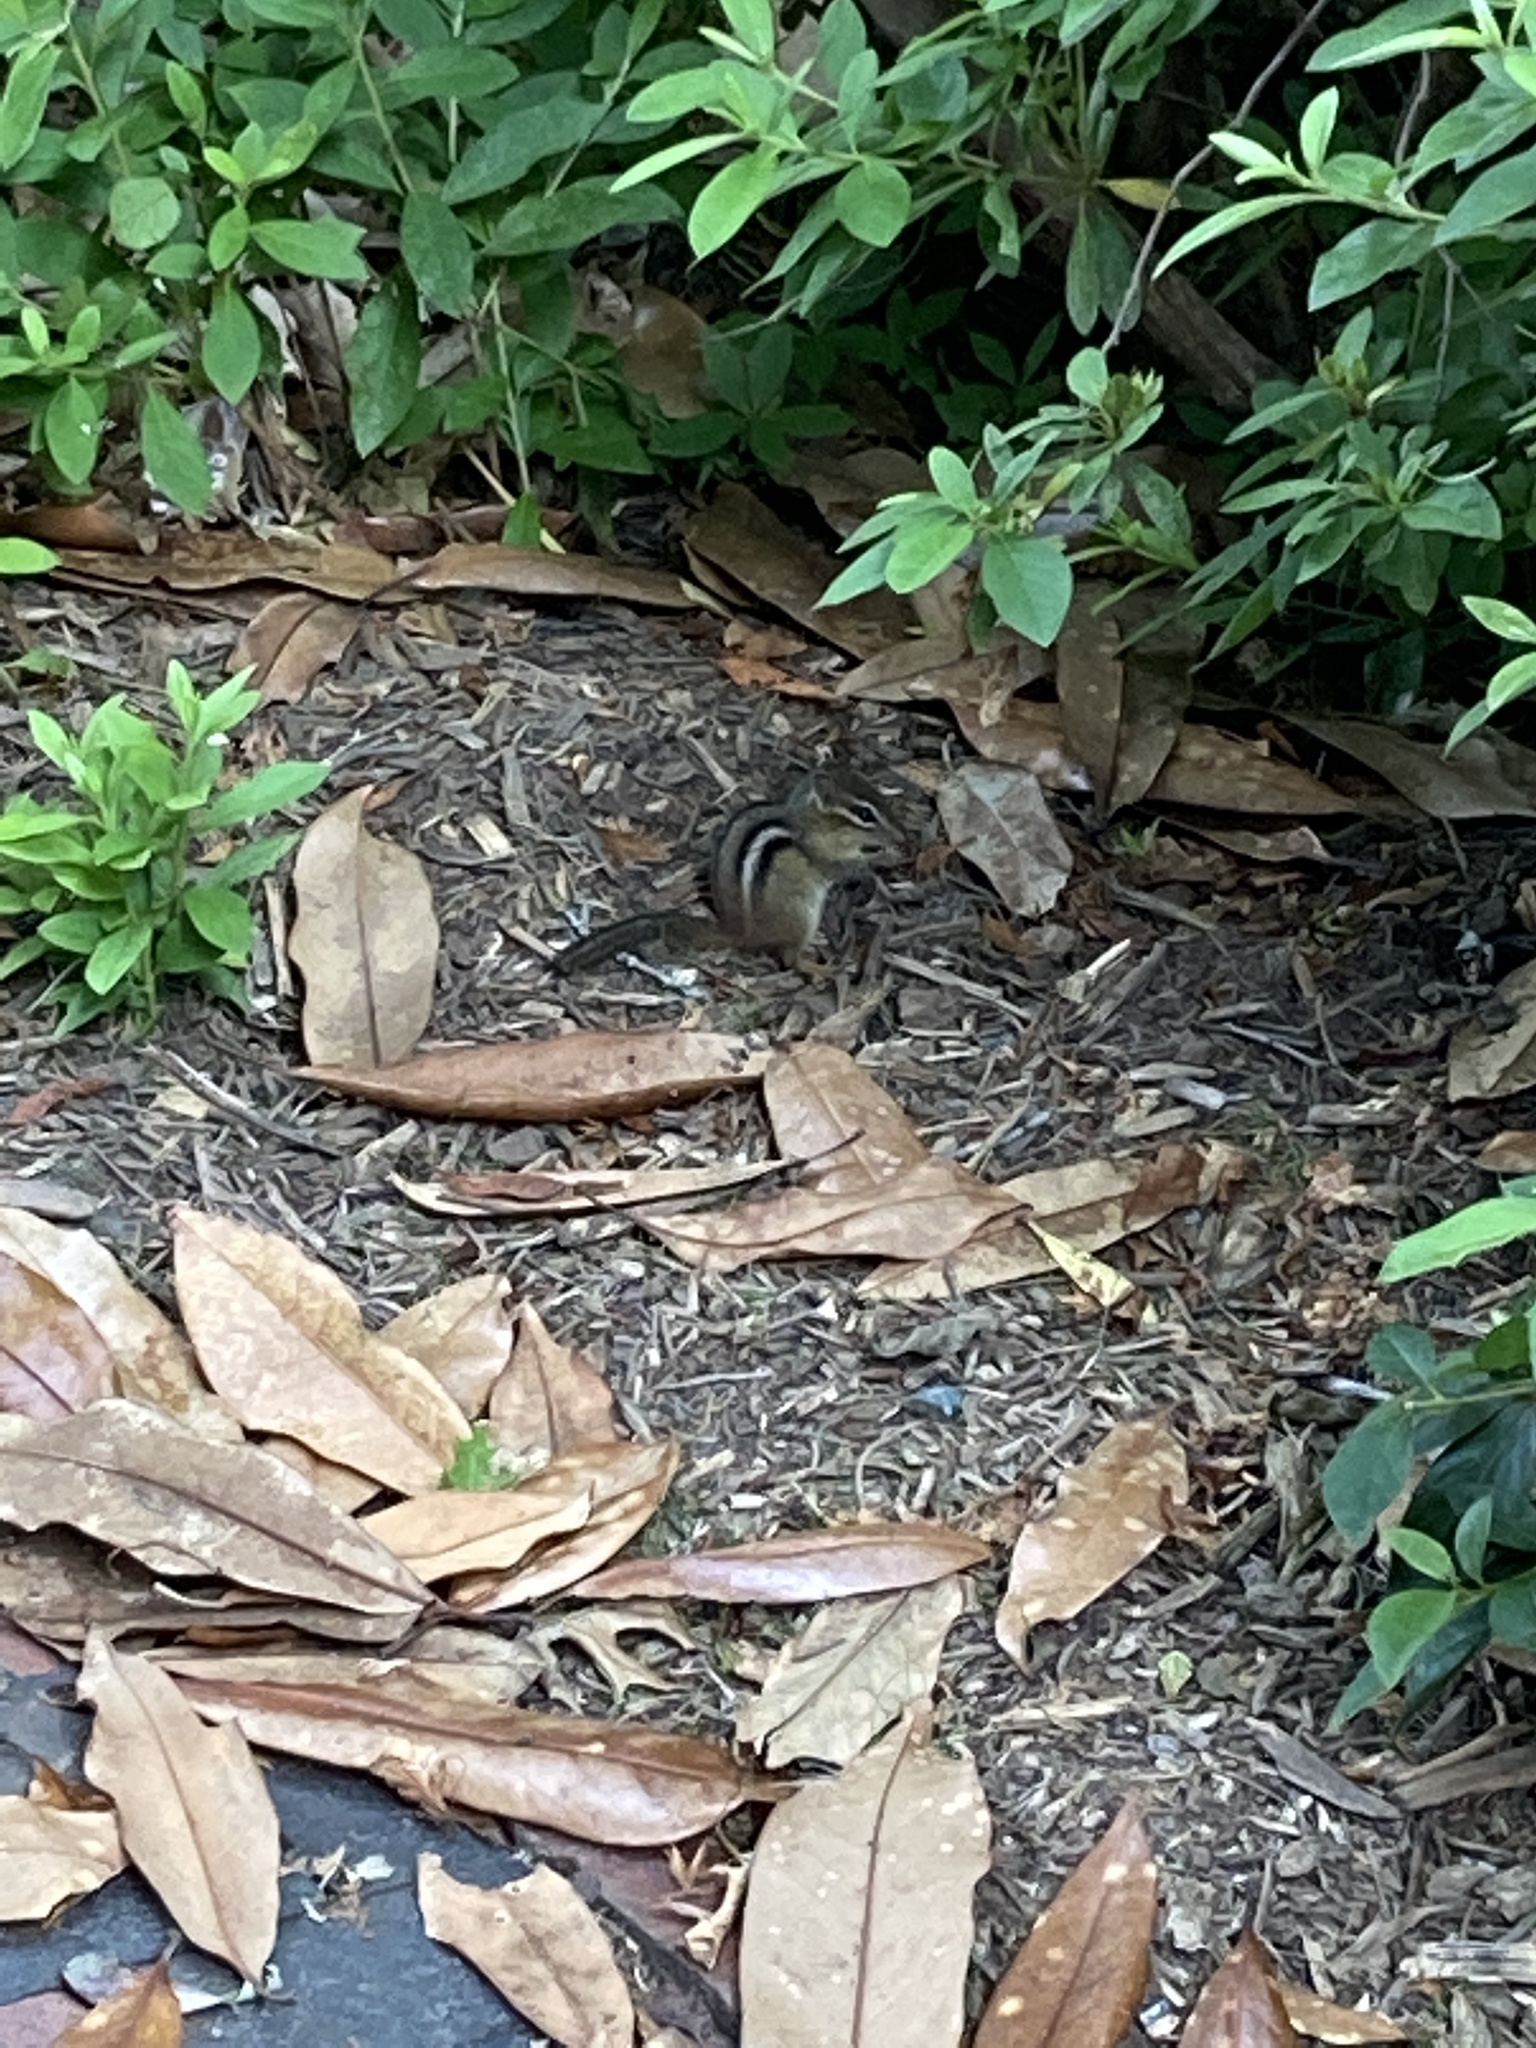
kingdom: Animalia
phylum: Chordata
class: Mammalia
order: Rodentia
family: Sciuridae
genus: Tamias
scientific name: Tamias striatus
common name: Eastern chipmunk
